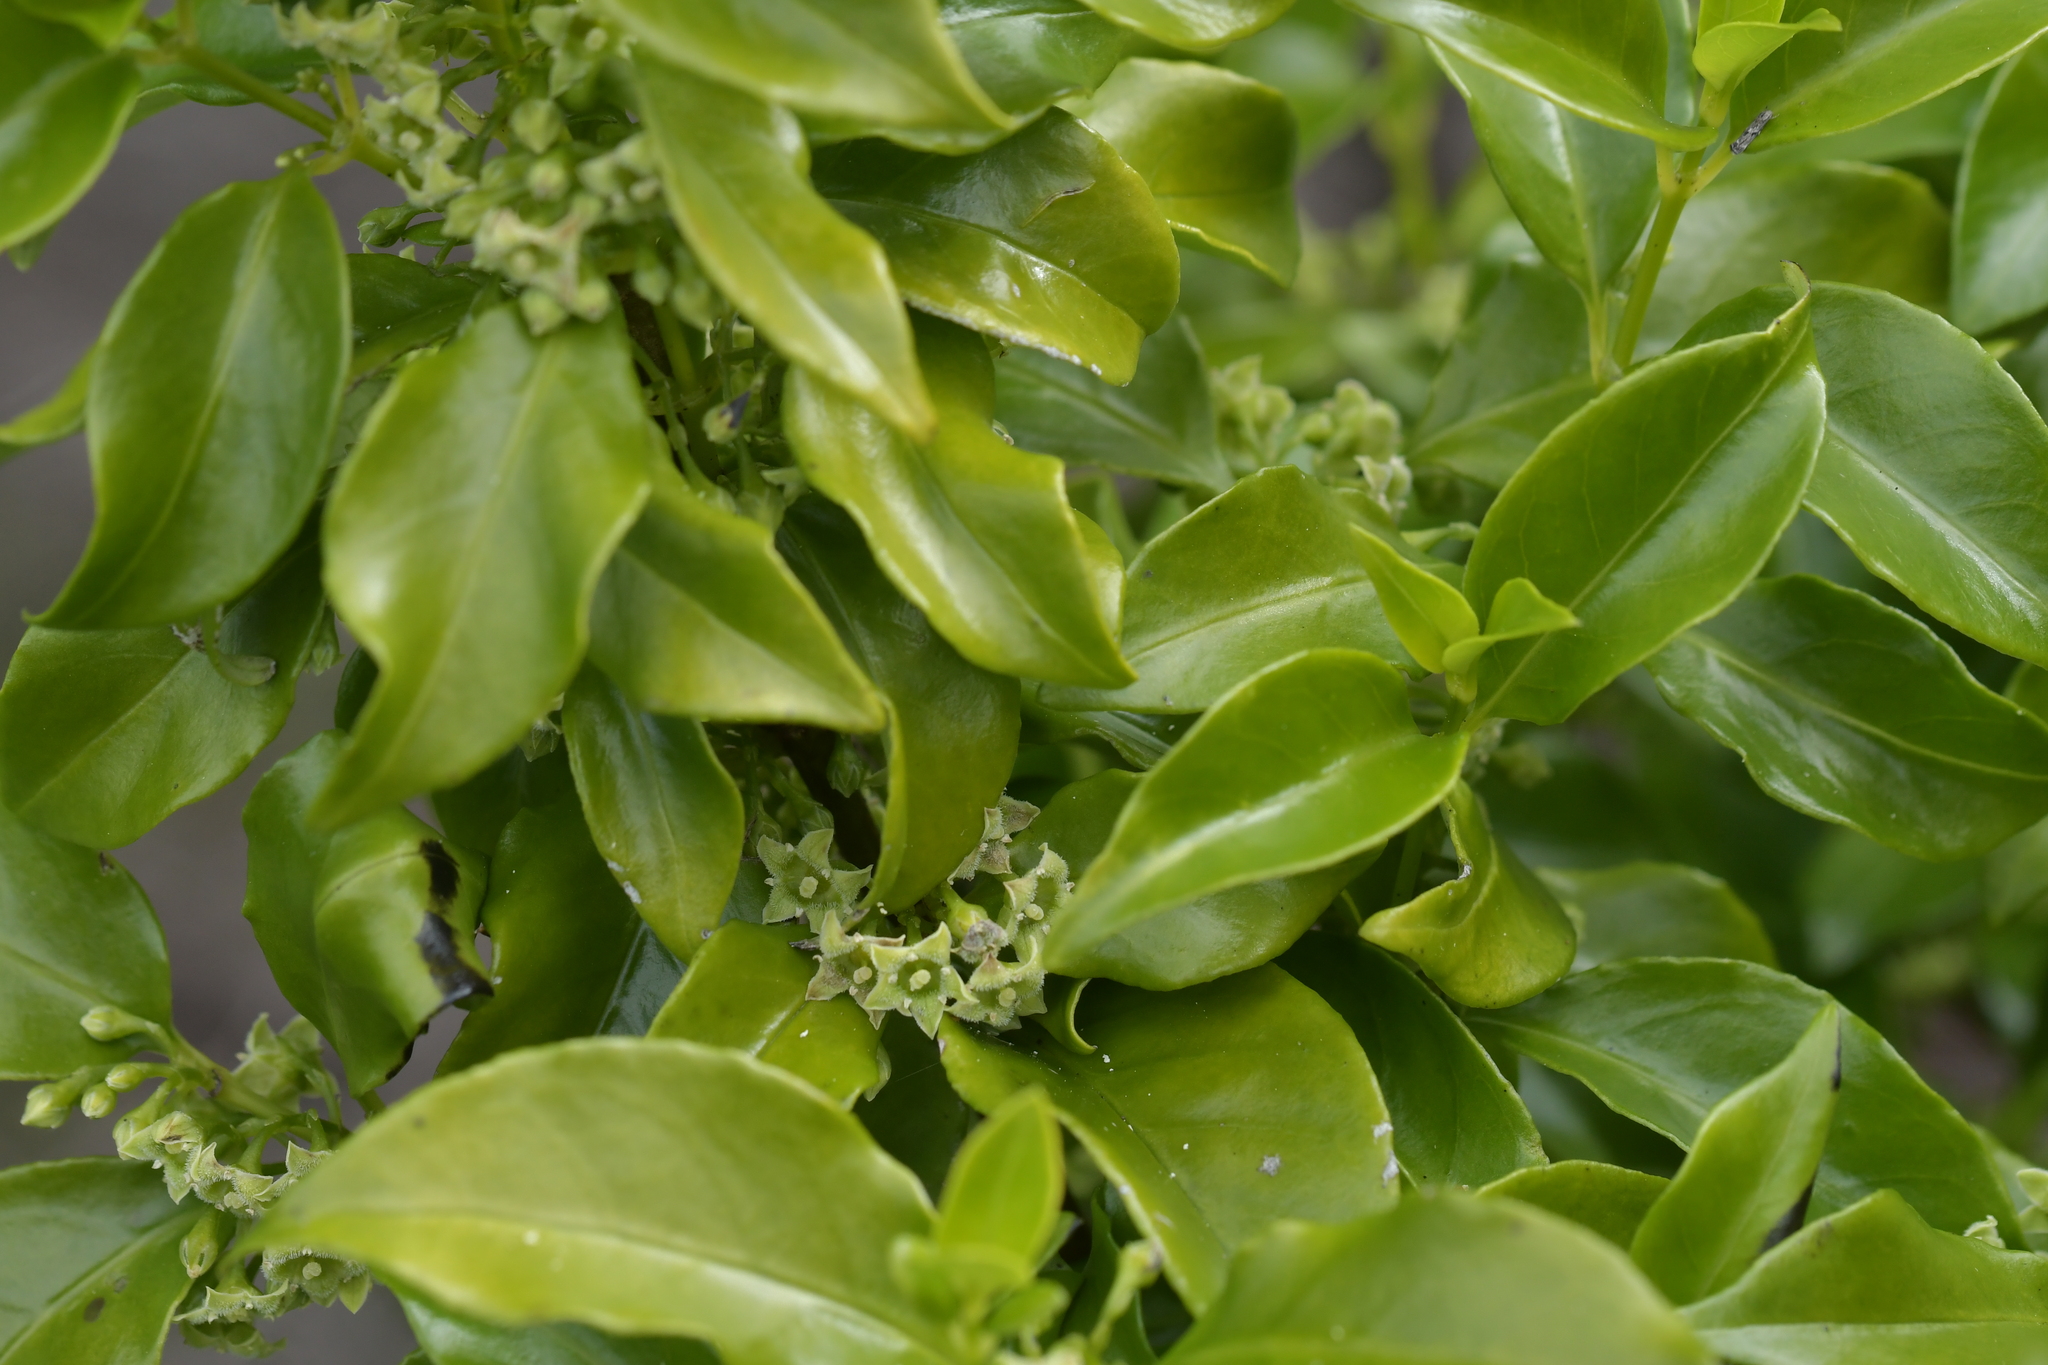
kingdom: Plantae
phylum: Tracheophyta
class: Magnoliopsida
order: Gentianales
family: Loganiaceae
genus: Geniostoma
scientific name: Geniostoma ligustrifolium
